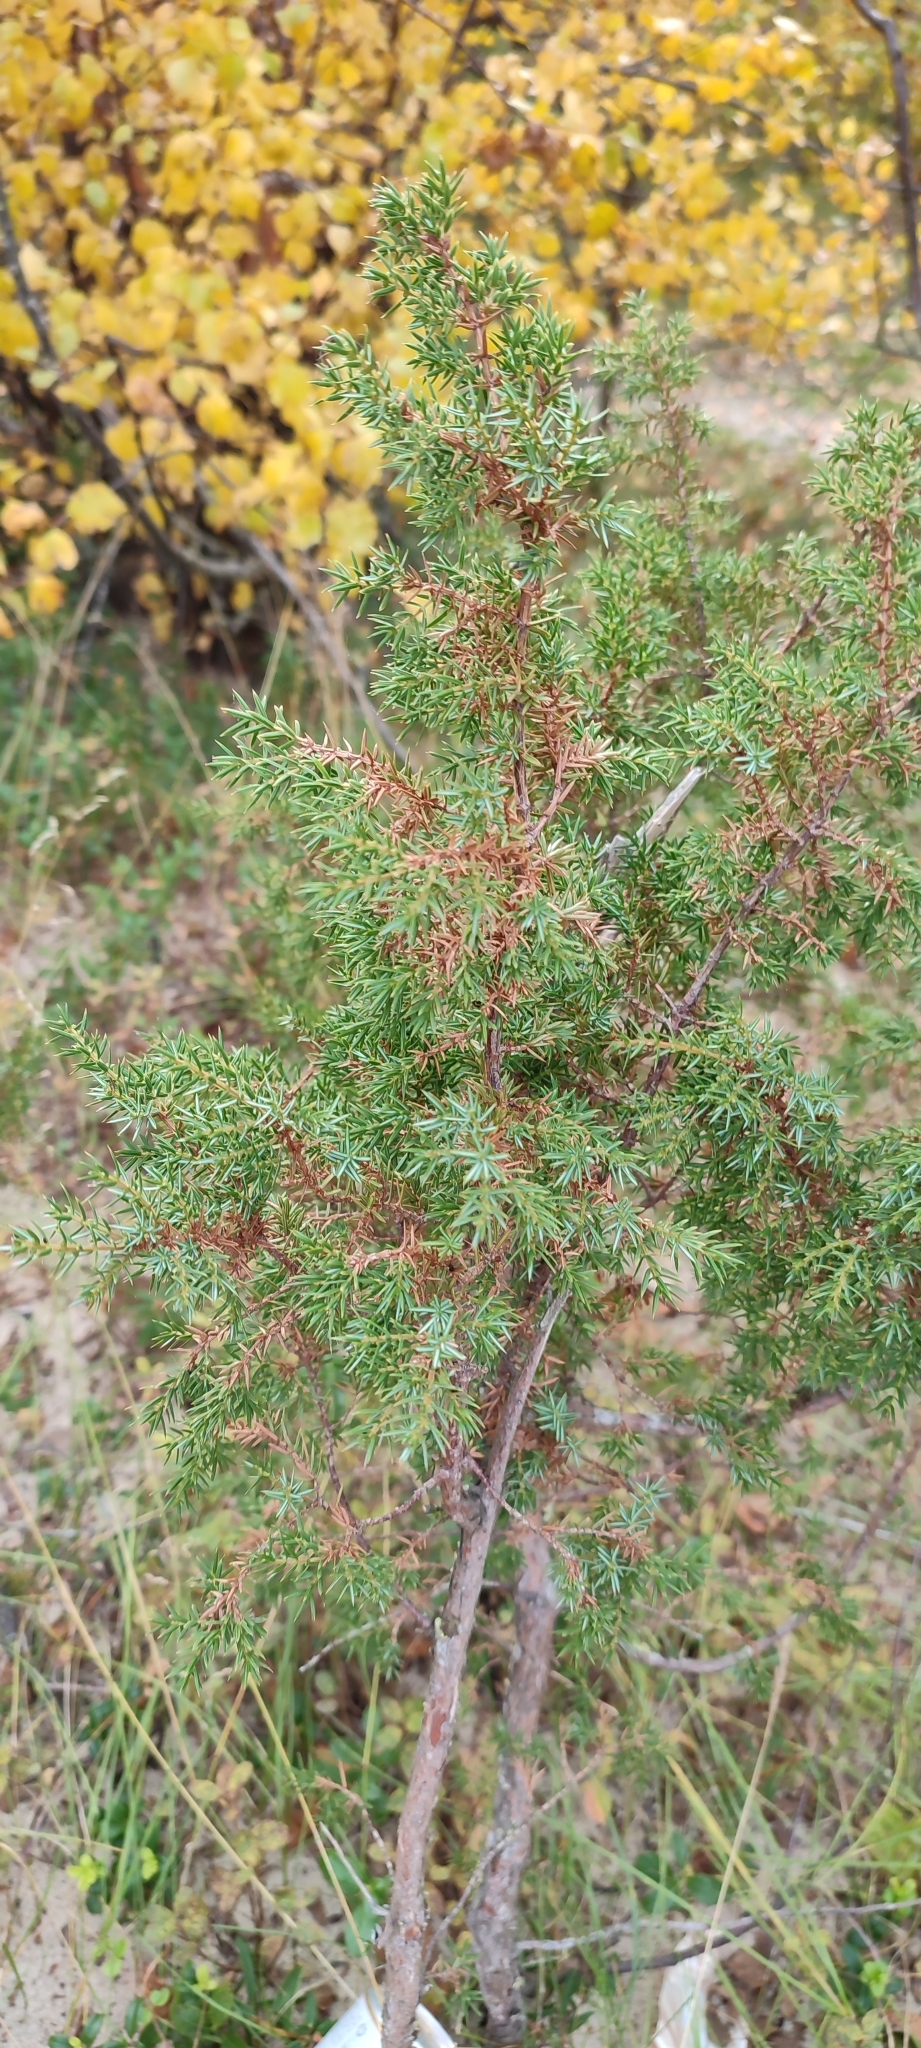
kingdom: Plantae
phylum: Tracheophyta
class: Pinopsida
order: Pinales
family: Cupressaceae
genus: Juniperus
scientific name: Juniperus communis
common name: Common juniper
